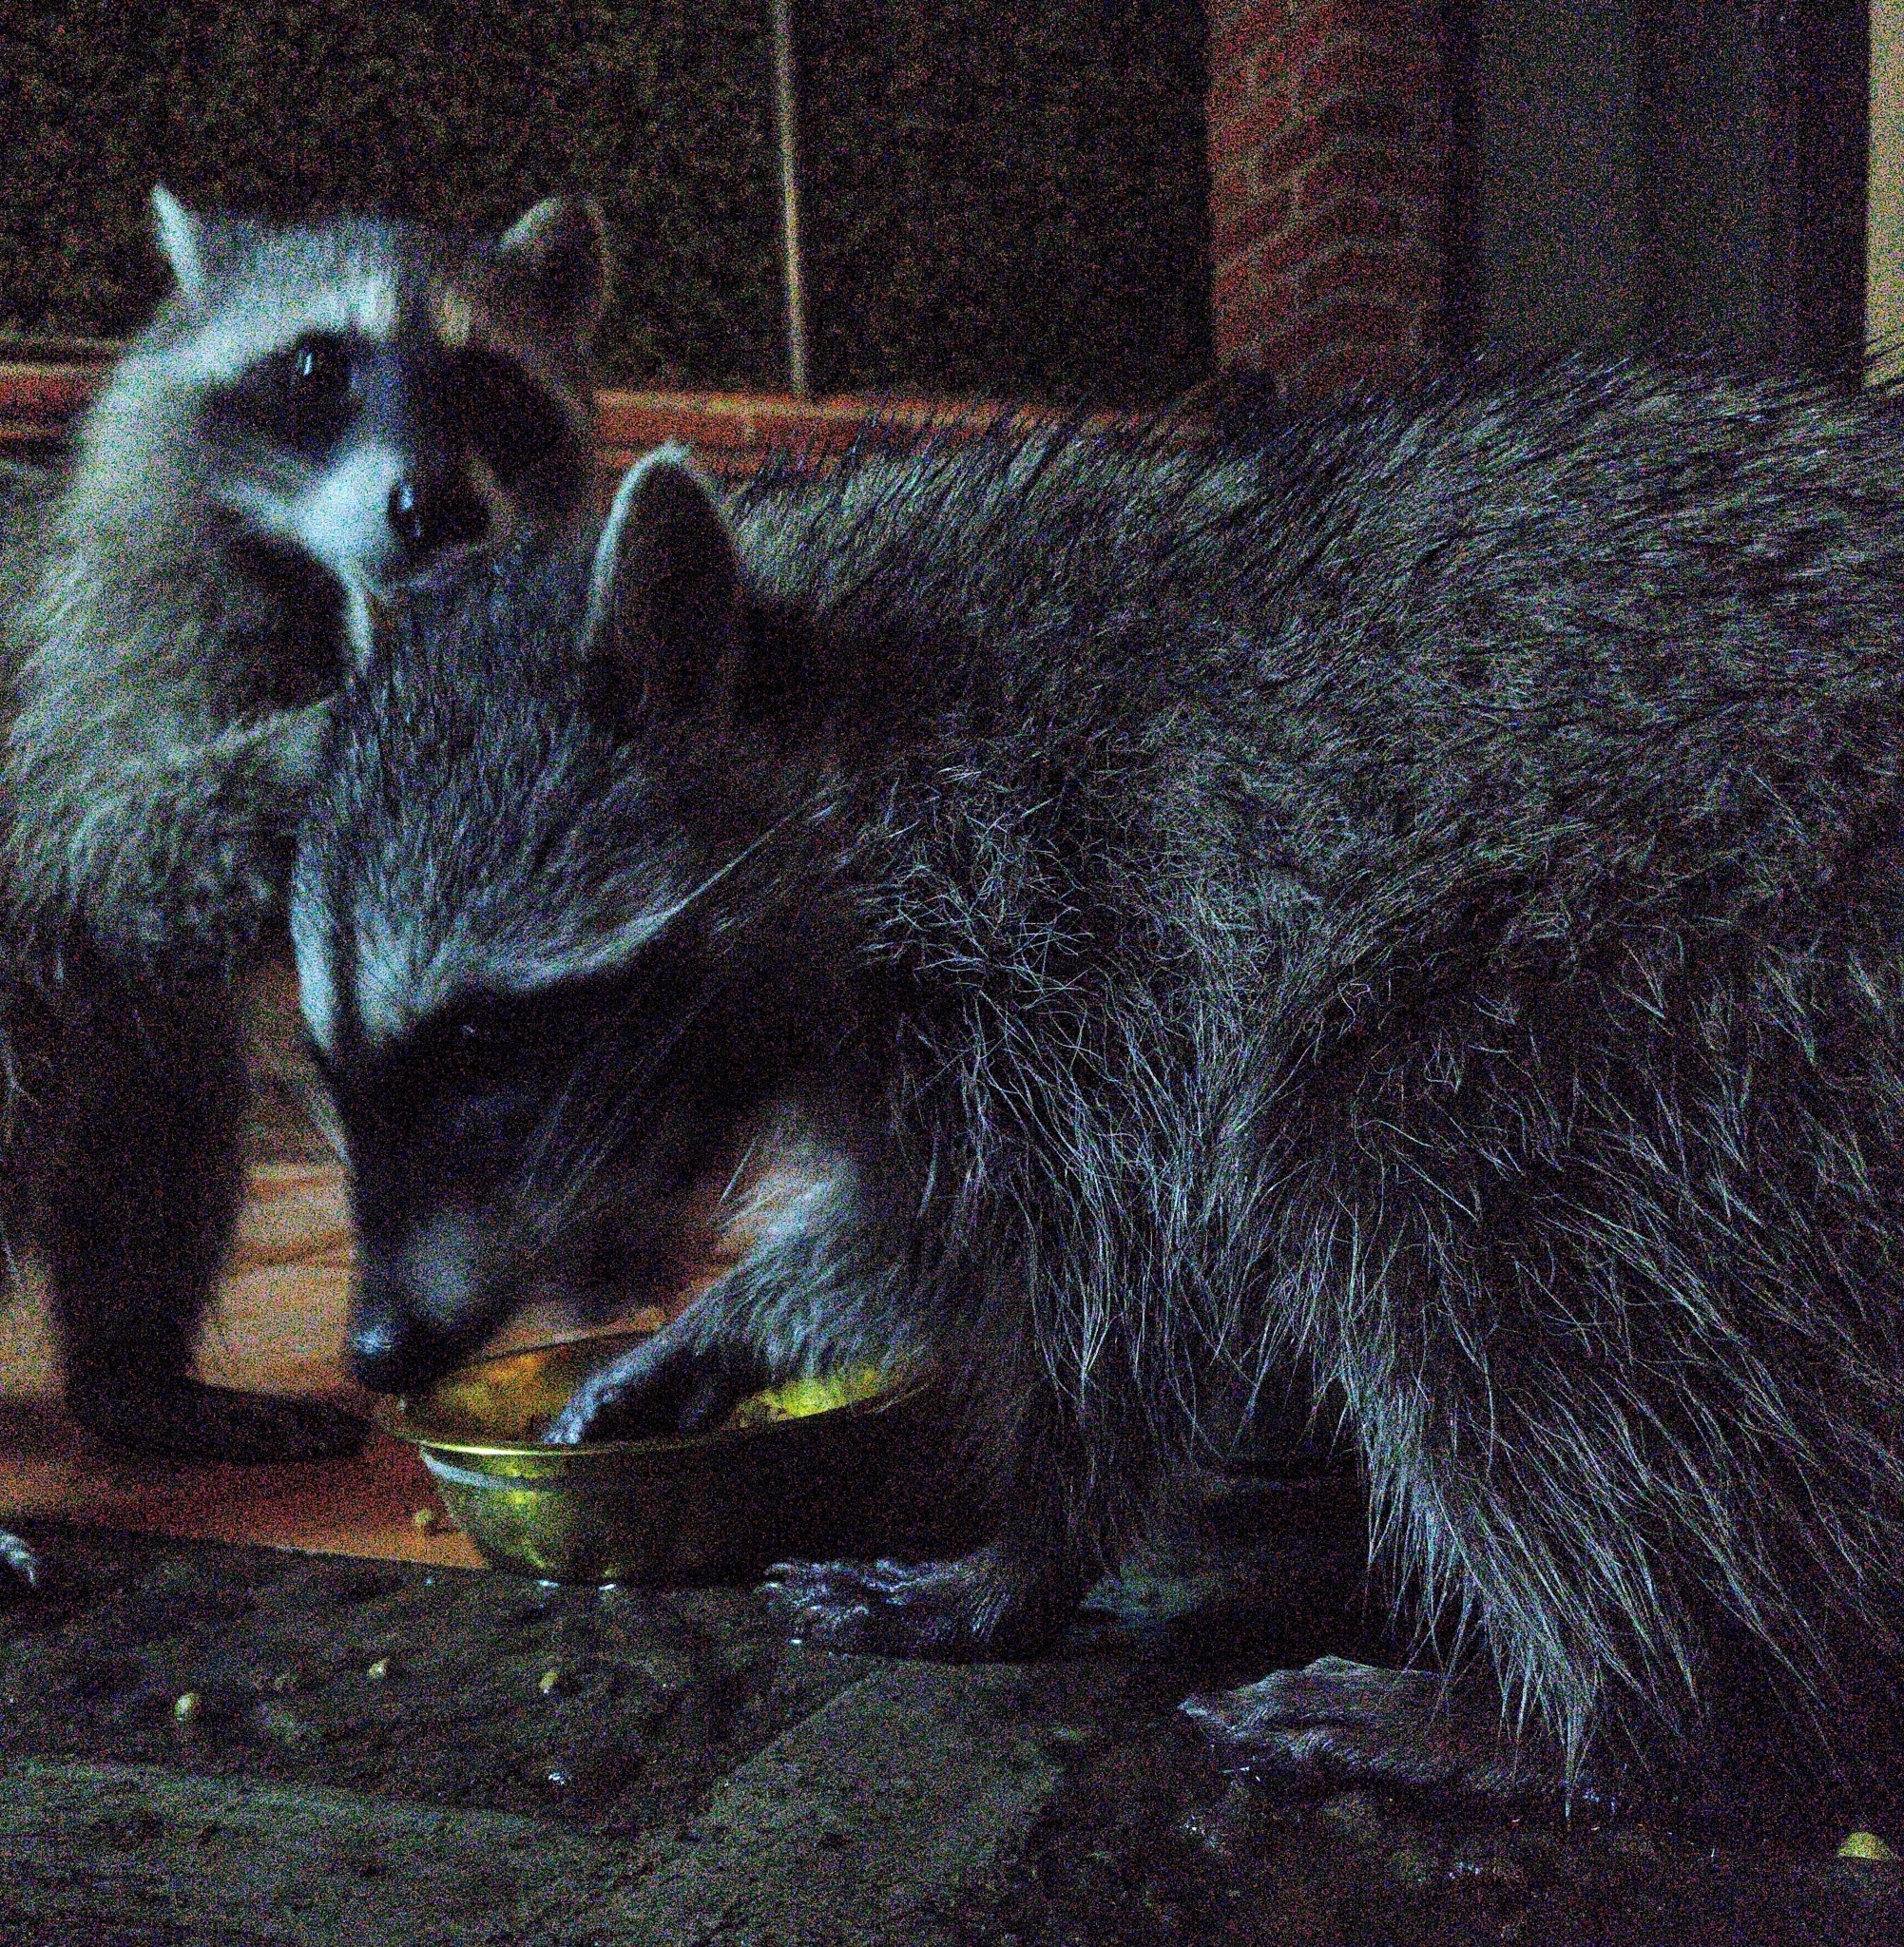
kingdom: Animalia
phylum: Chordata
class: Mammalia
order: Carnivora
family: Procyonidae
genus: Procyon
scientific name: Procyon lotor
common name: Raccoon
